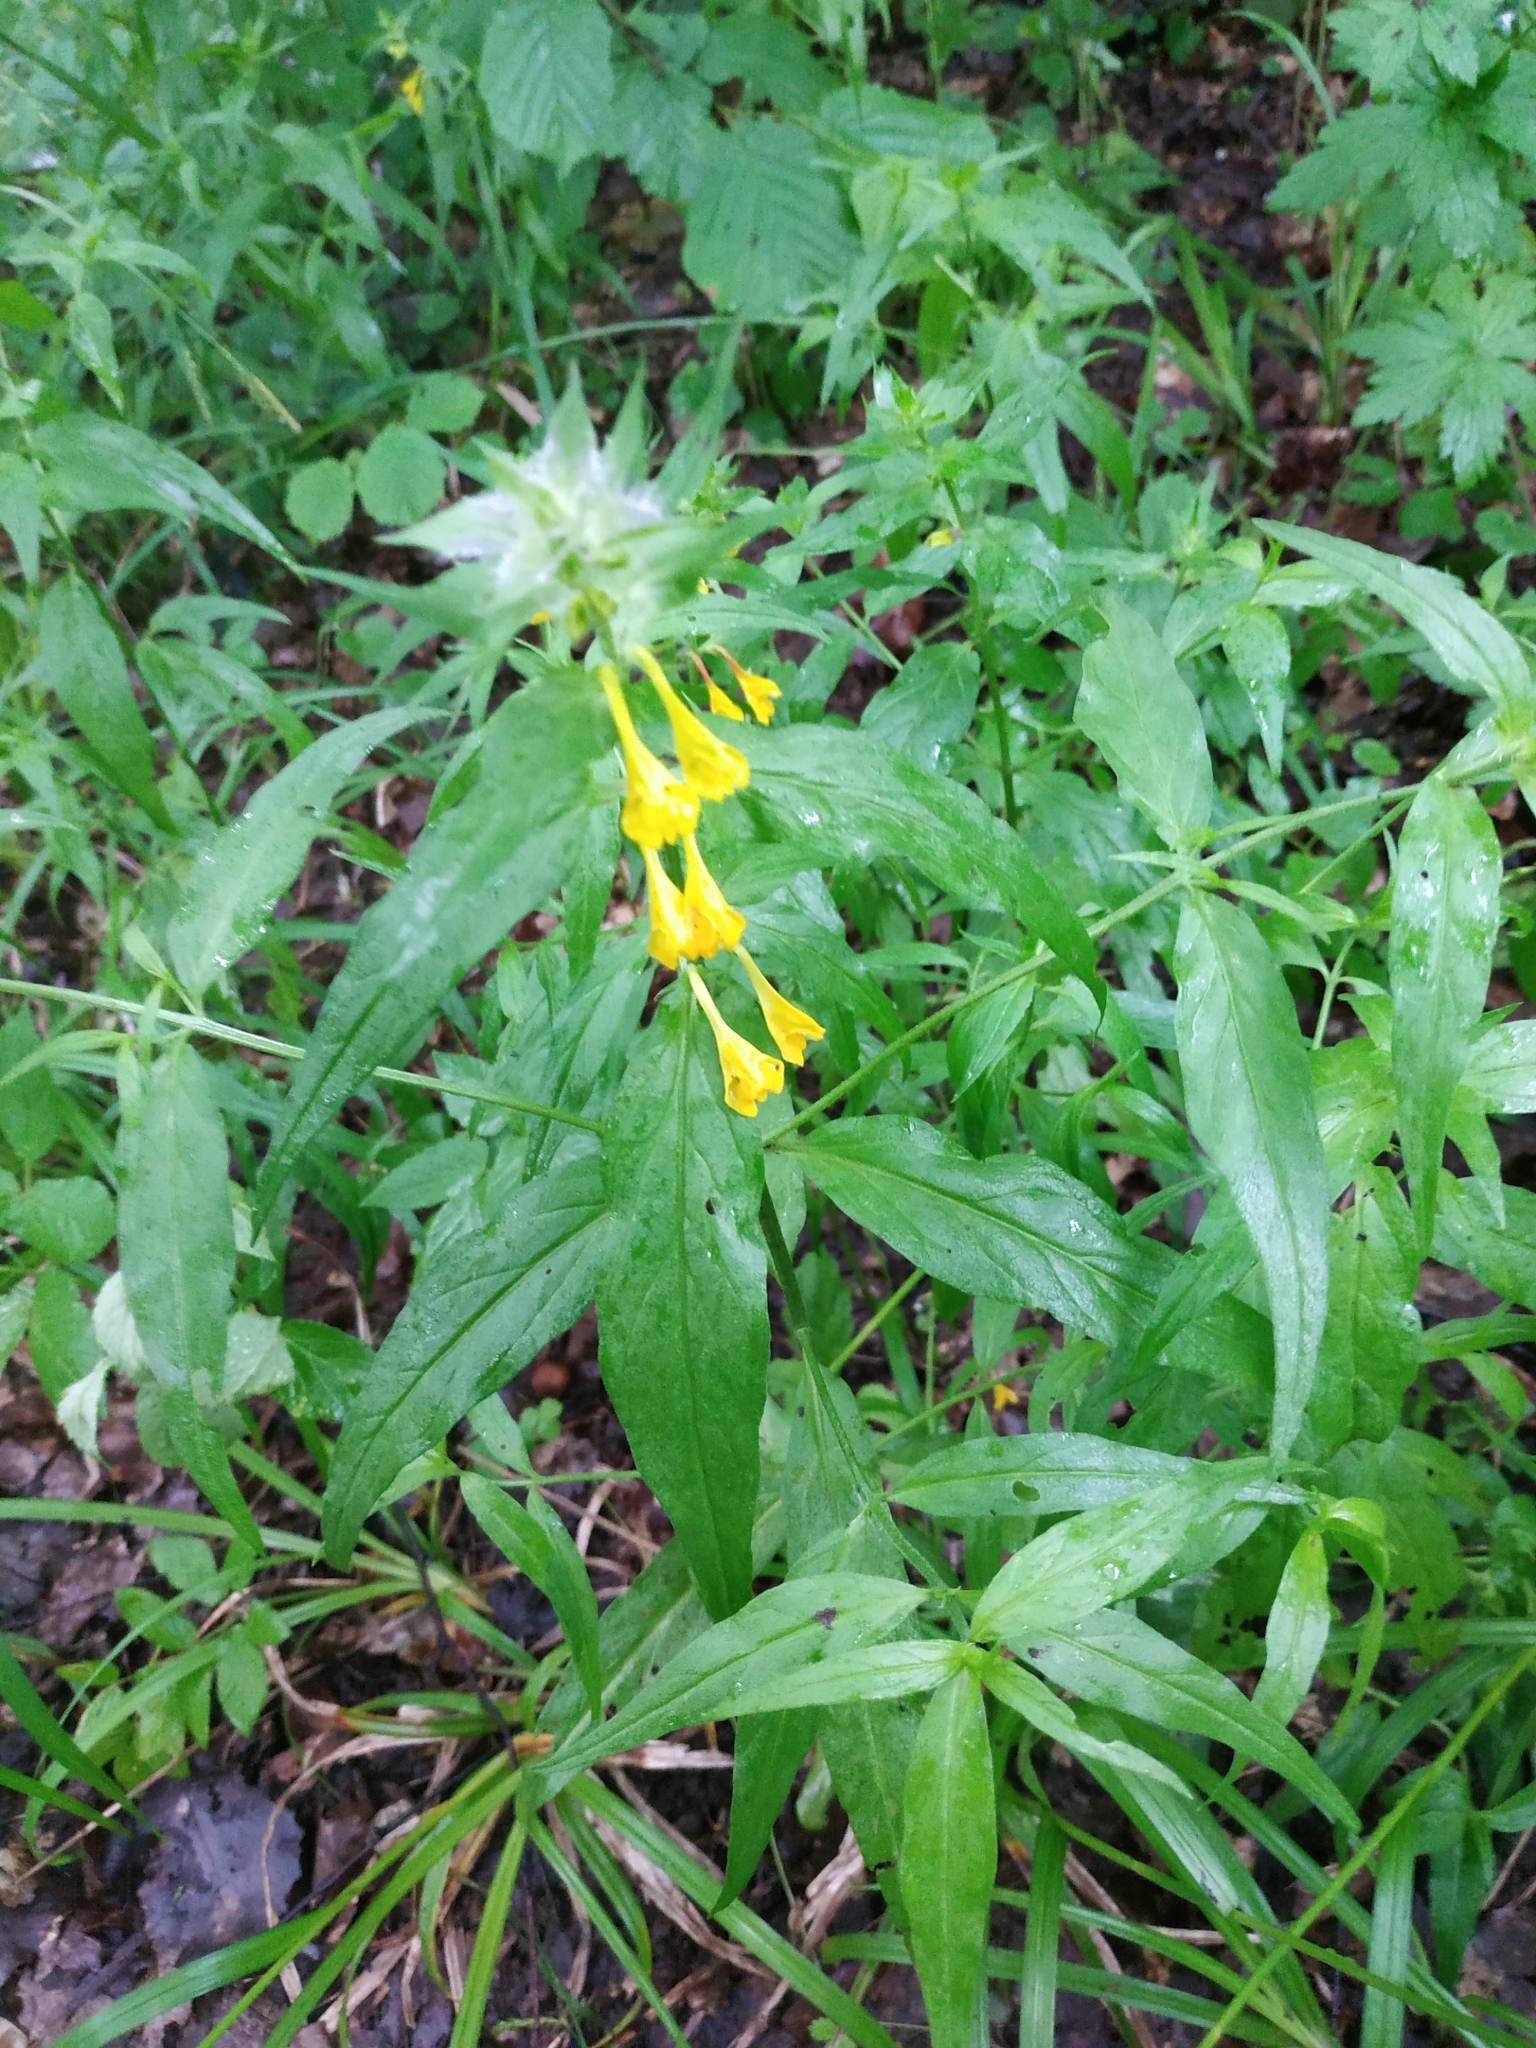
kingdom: Plantae
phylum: Tracheophyta
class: Magnoliopsida
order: Lamiales
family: Orobanchaceae
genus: Melampyrum
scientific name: Melampyrum nemorosum
